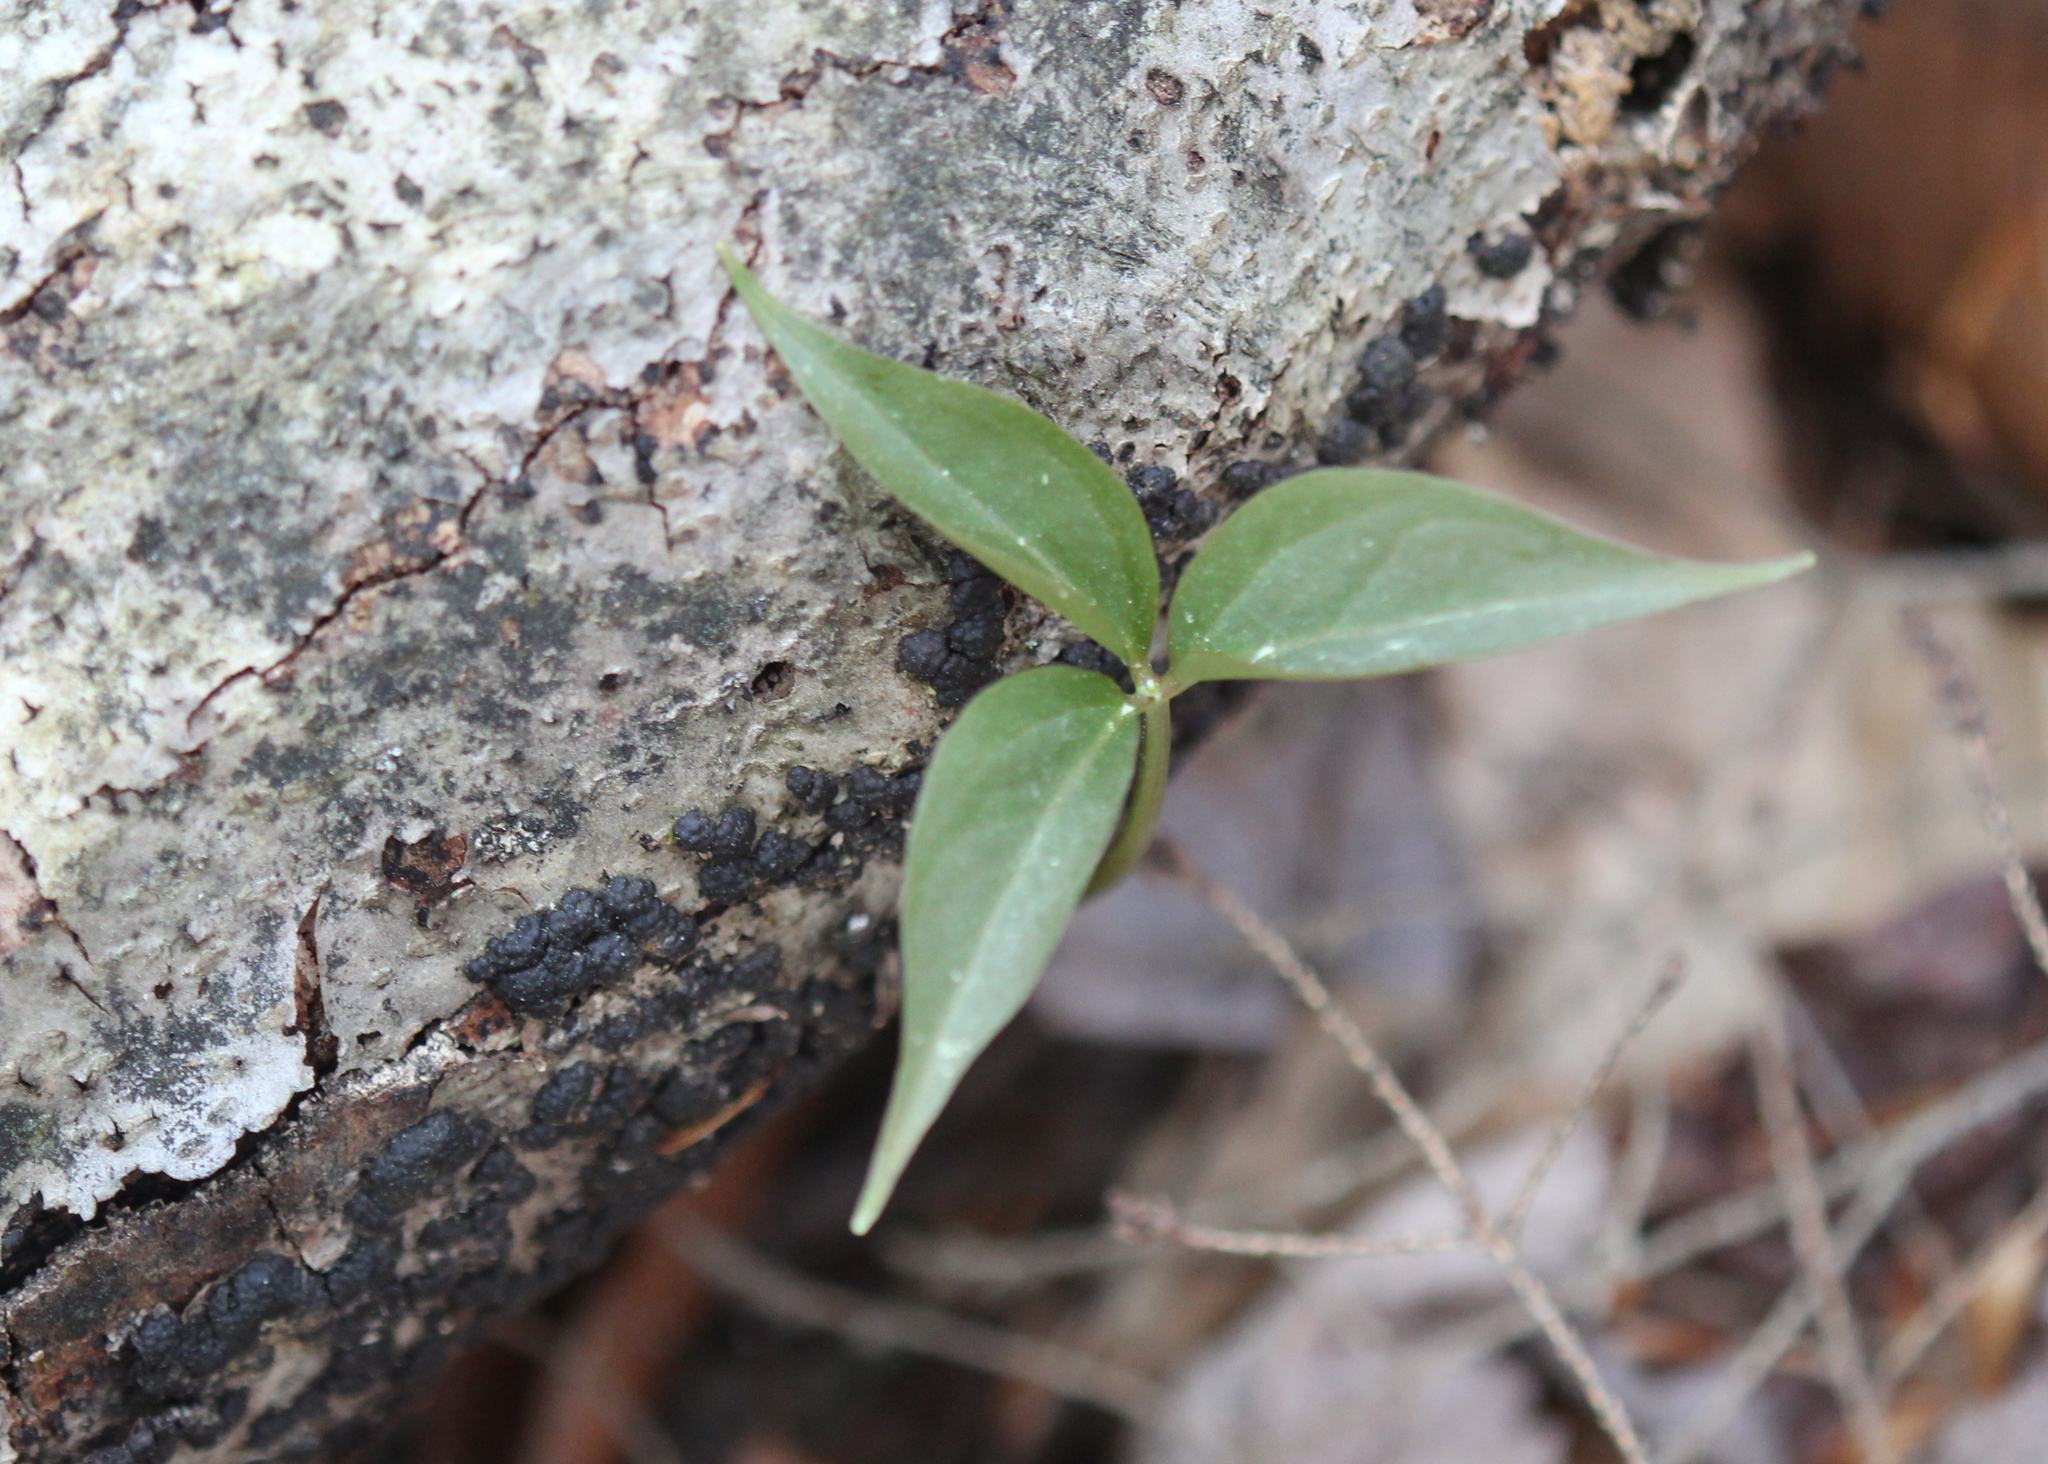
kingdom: Plantae
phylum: Tracheophyta
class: Liliopsida
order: Liliales
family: Melanthiaceae
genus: Trillium
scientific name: Trillium undulatum
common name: Paint trillium
